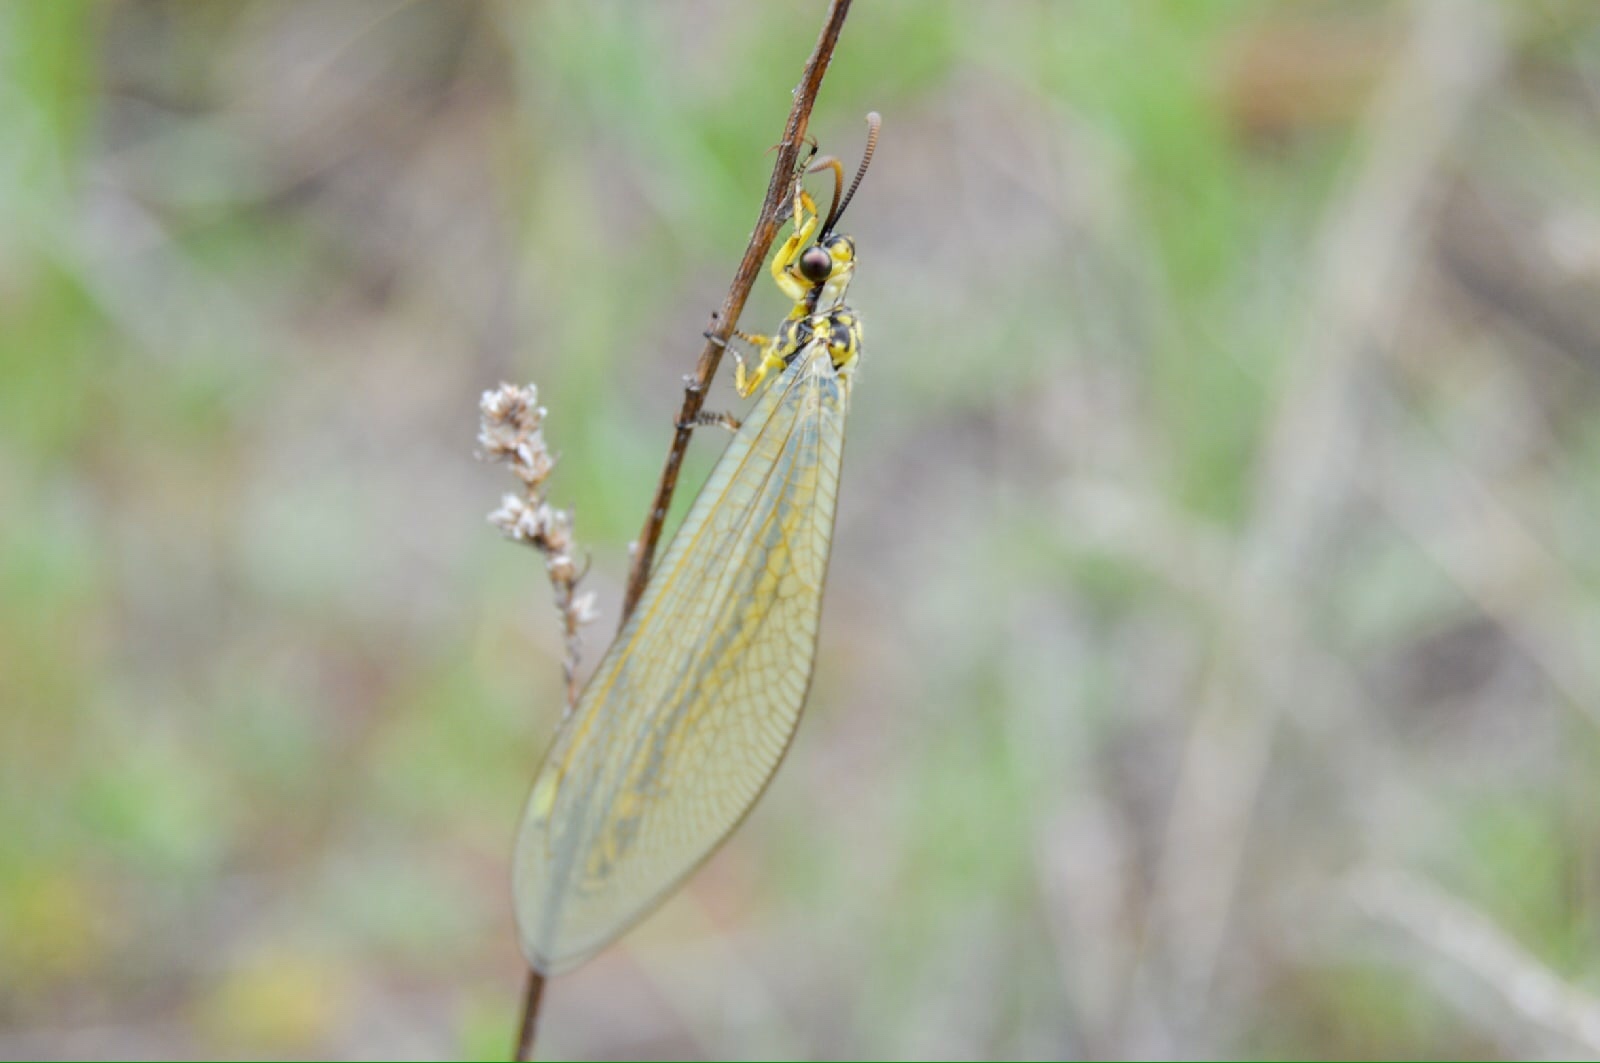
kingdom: Animalia
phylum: Arthropoda
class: Insecta
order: Neuroptera
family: Myrmeleontidae
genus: Myrmecaelurus
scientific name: Myrmecaelurus trigrammus
